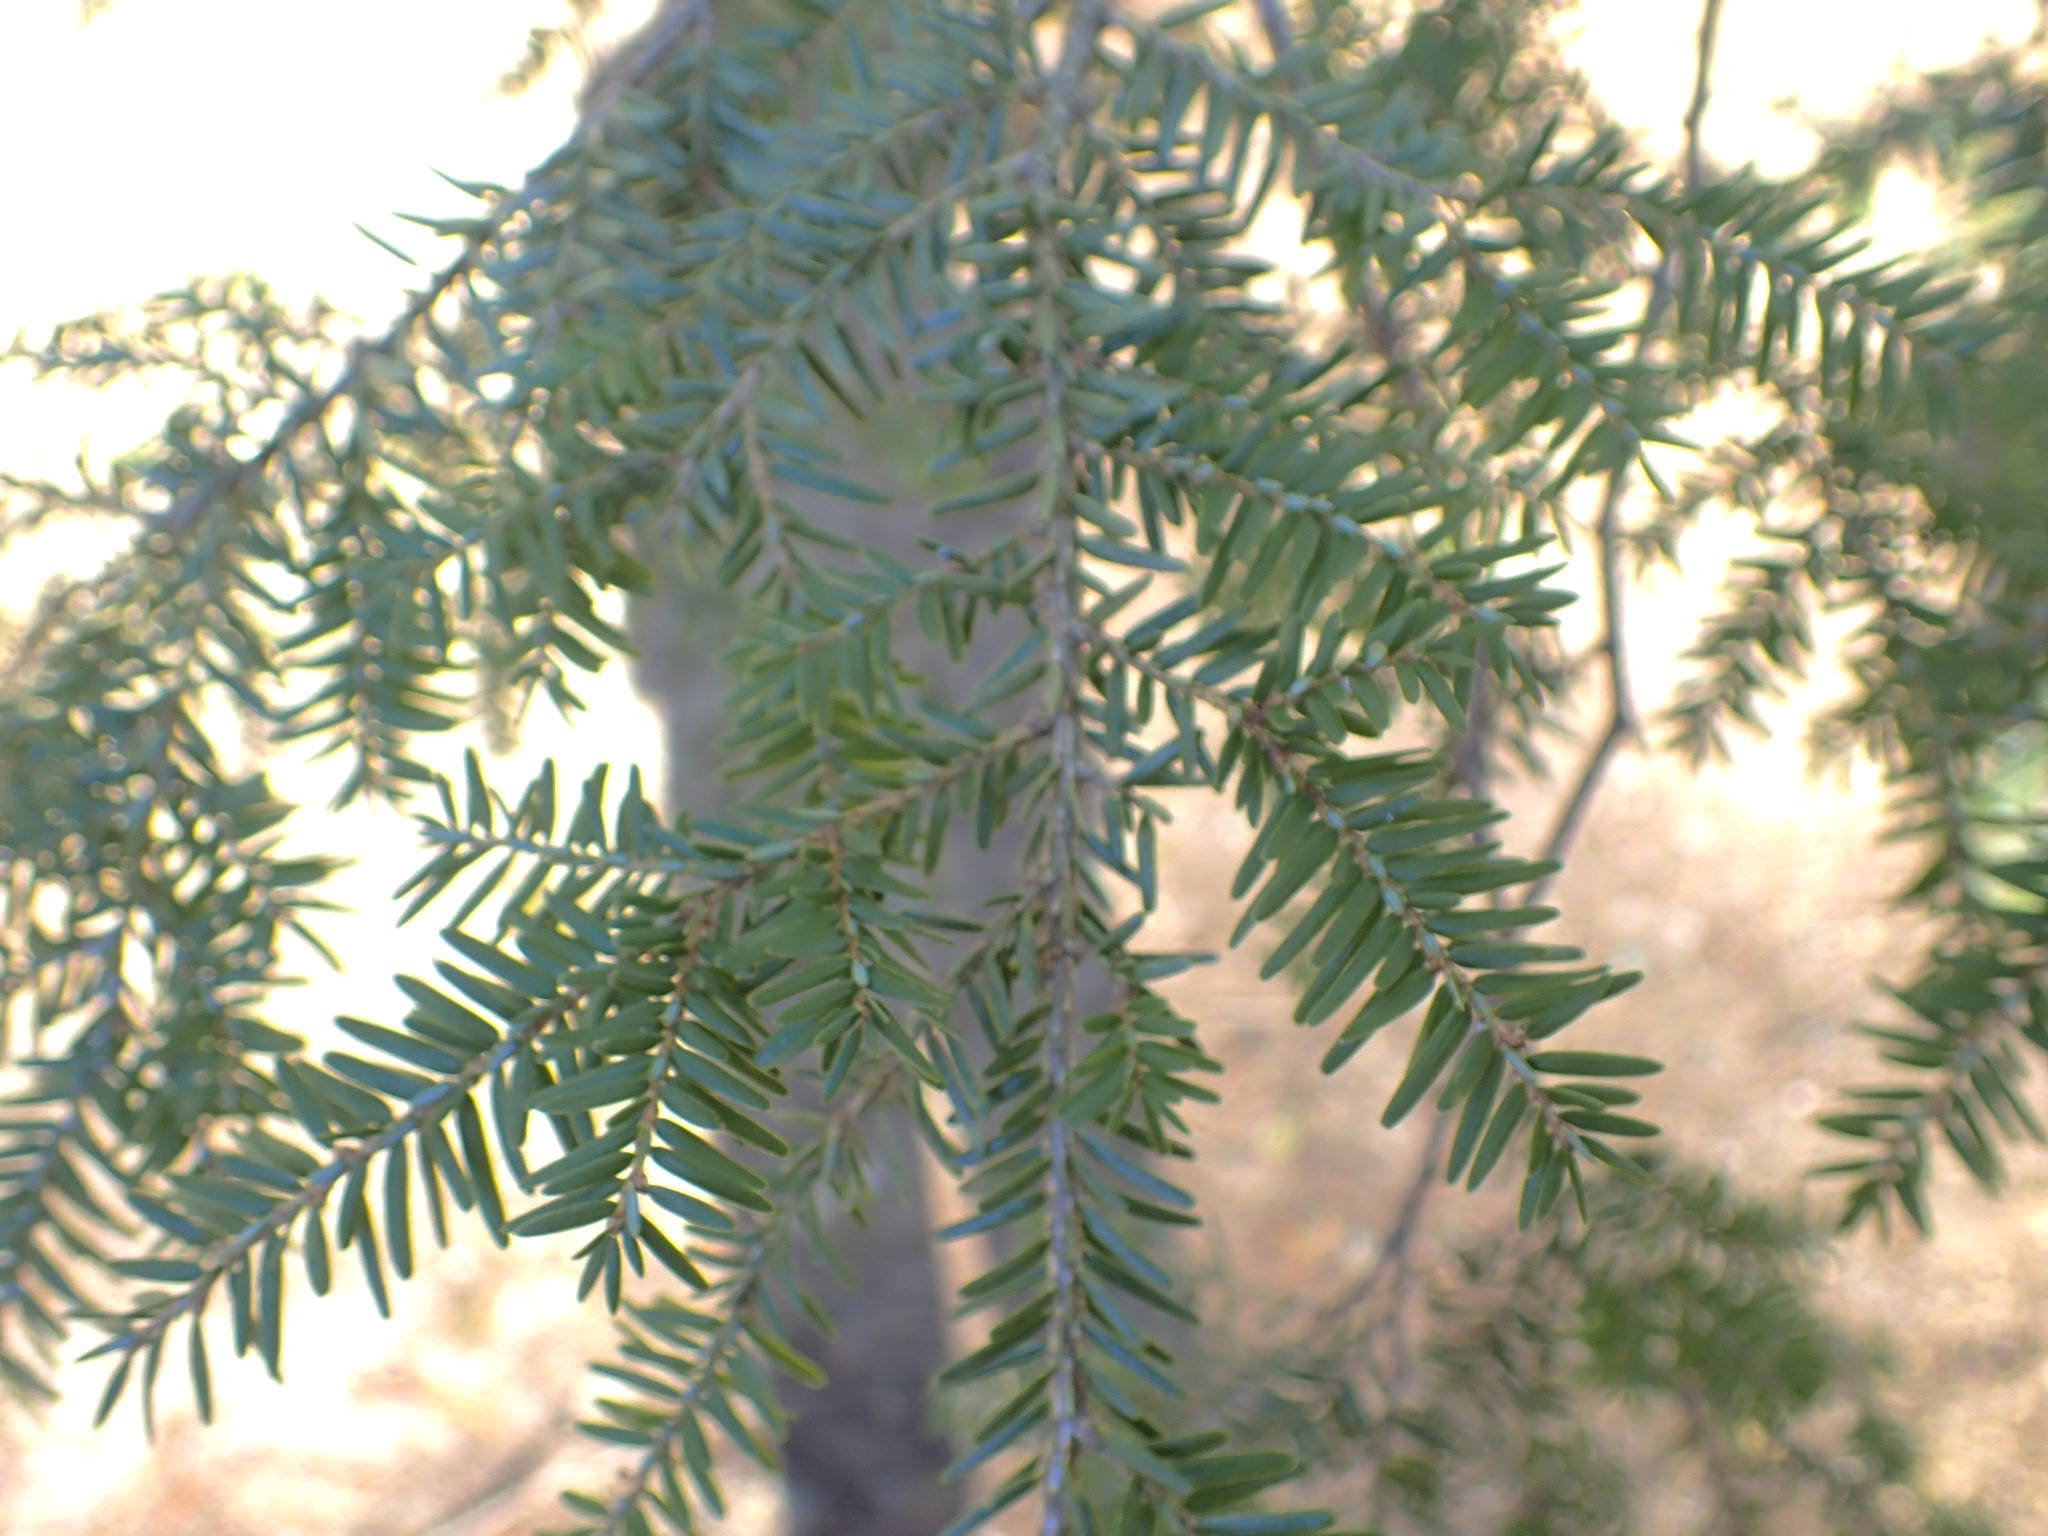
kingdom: Plantae
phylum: Tracheophyta
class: Pinopsida
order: Pinales
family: Pinaceae
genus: Tsuga
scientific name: Tsuga canadensis
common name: Eastern hemlock
